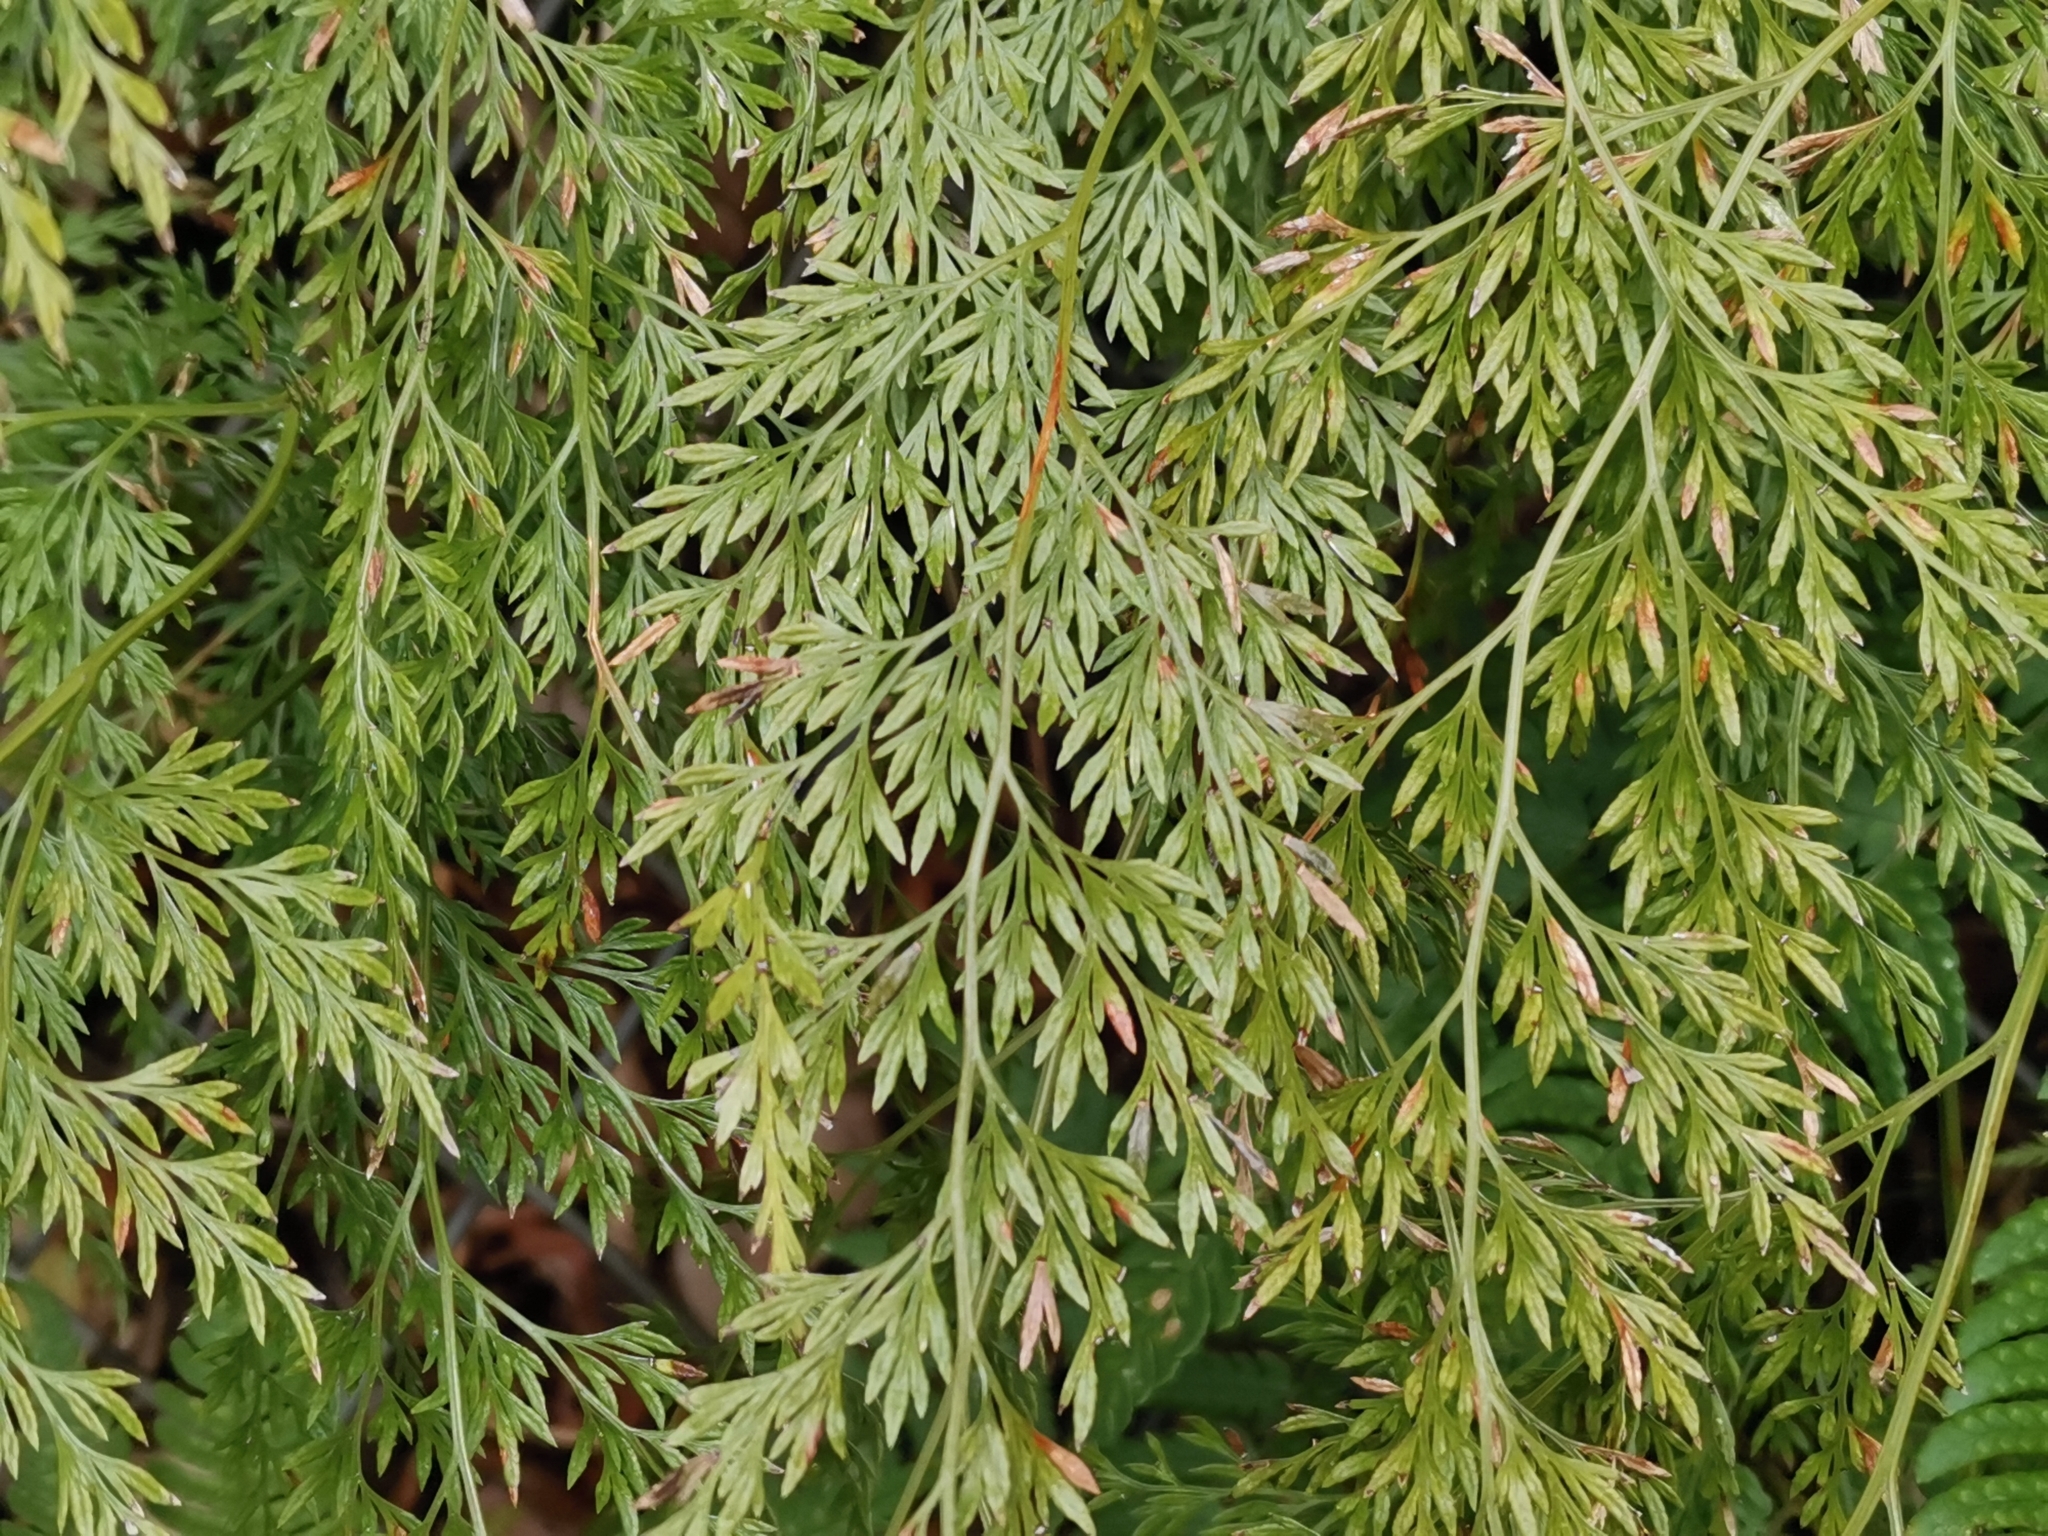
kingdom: Plantae
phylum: Tracheophyta
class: Polypodiopsida
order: Polypodiales
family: Pteridaceae
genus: Onychium
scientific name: Onychium japonicum
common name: Carrot fern
